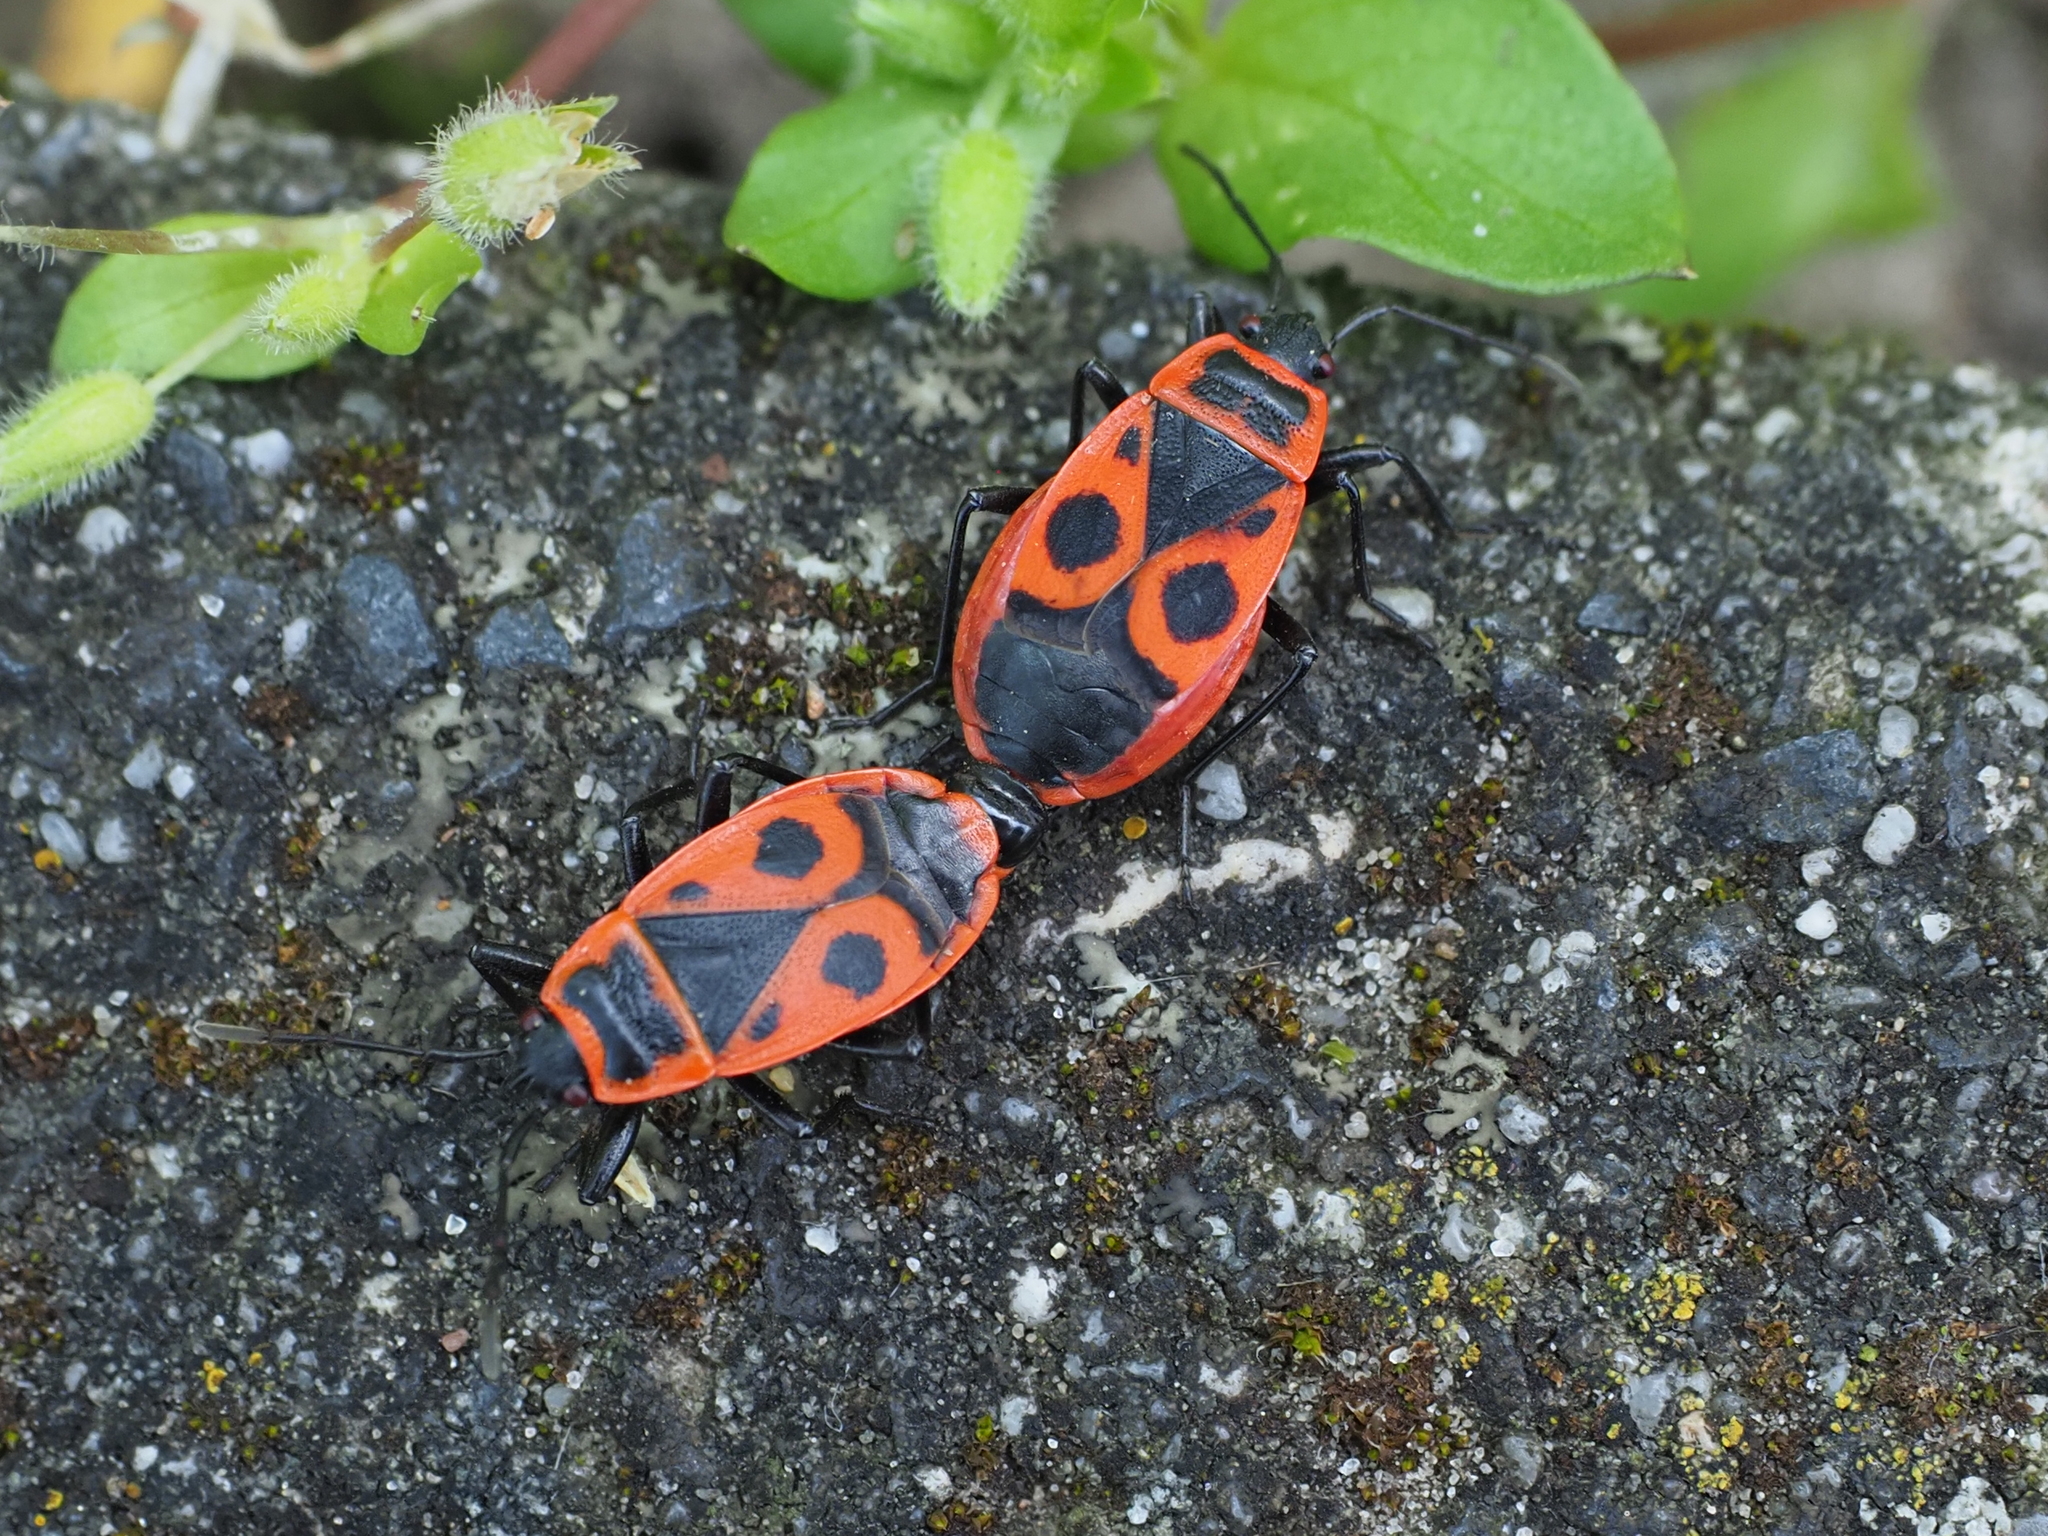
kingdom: Animalia
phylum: Arthropoda
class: Insecta
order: Hemiptera
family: Pyrrhocoridae
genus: Pyrrhocoris
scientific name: Pyrrhocoris apterus
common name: Firebug
